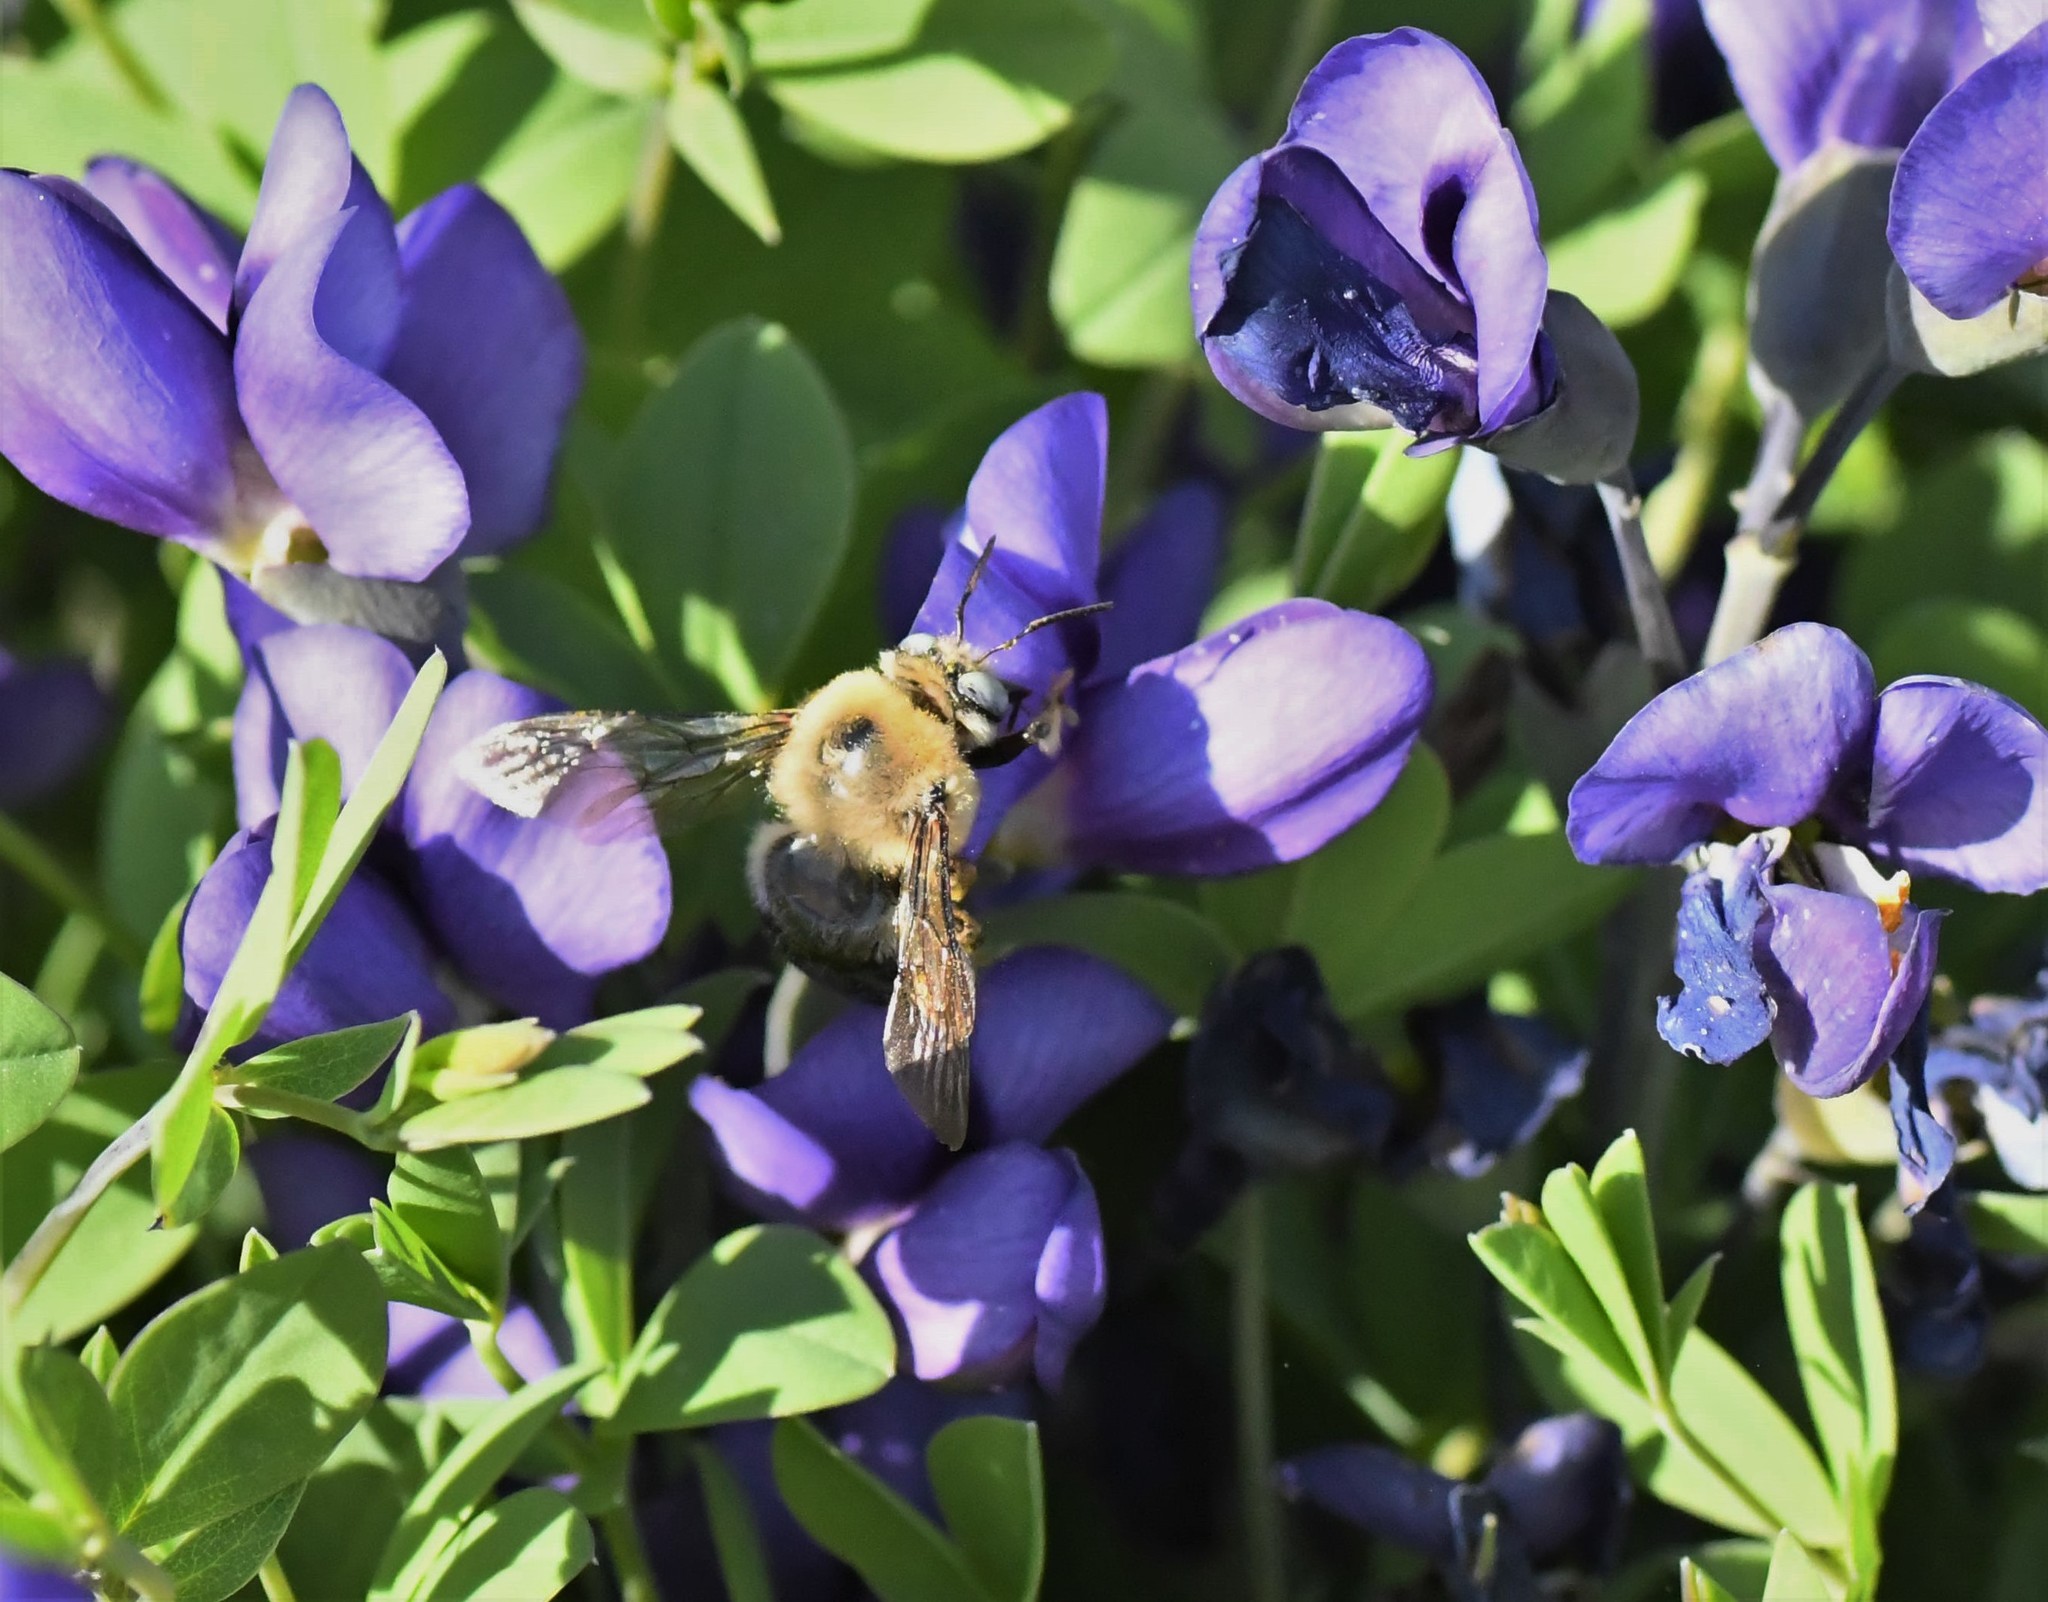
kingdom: Animalia
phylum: Arthropoda
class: Insecta
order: Hymenoptera
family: Apidae
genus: Xylocopa
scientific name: Xylocopa tabaniformis
